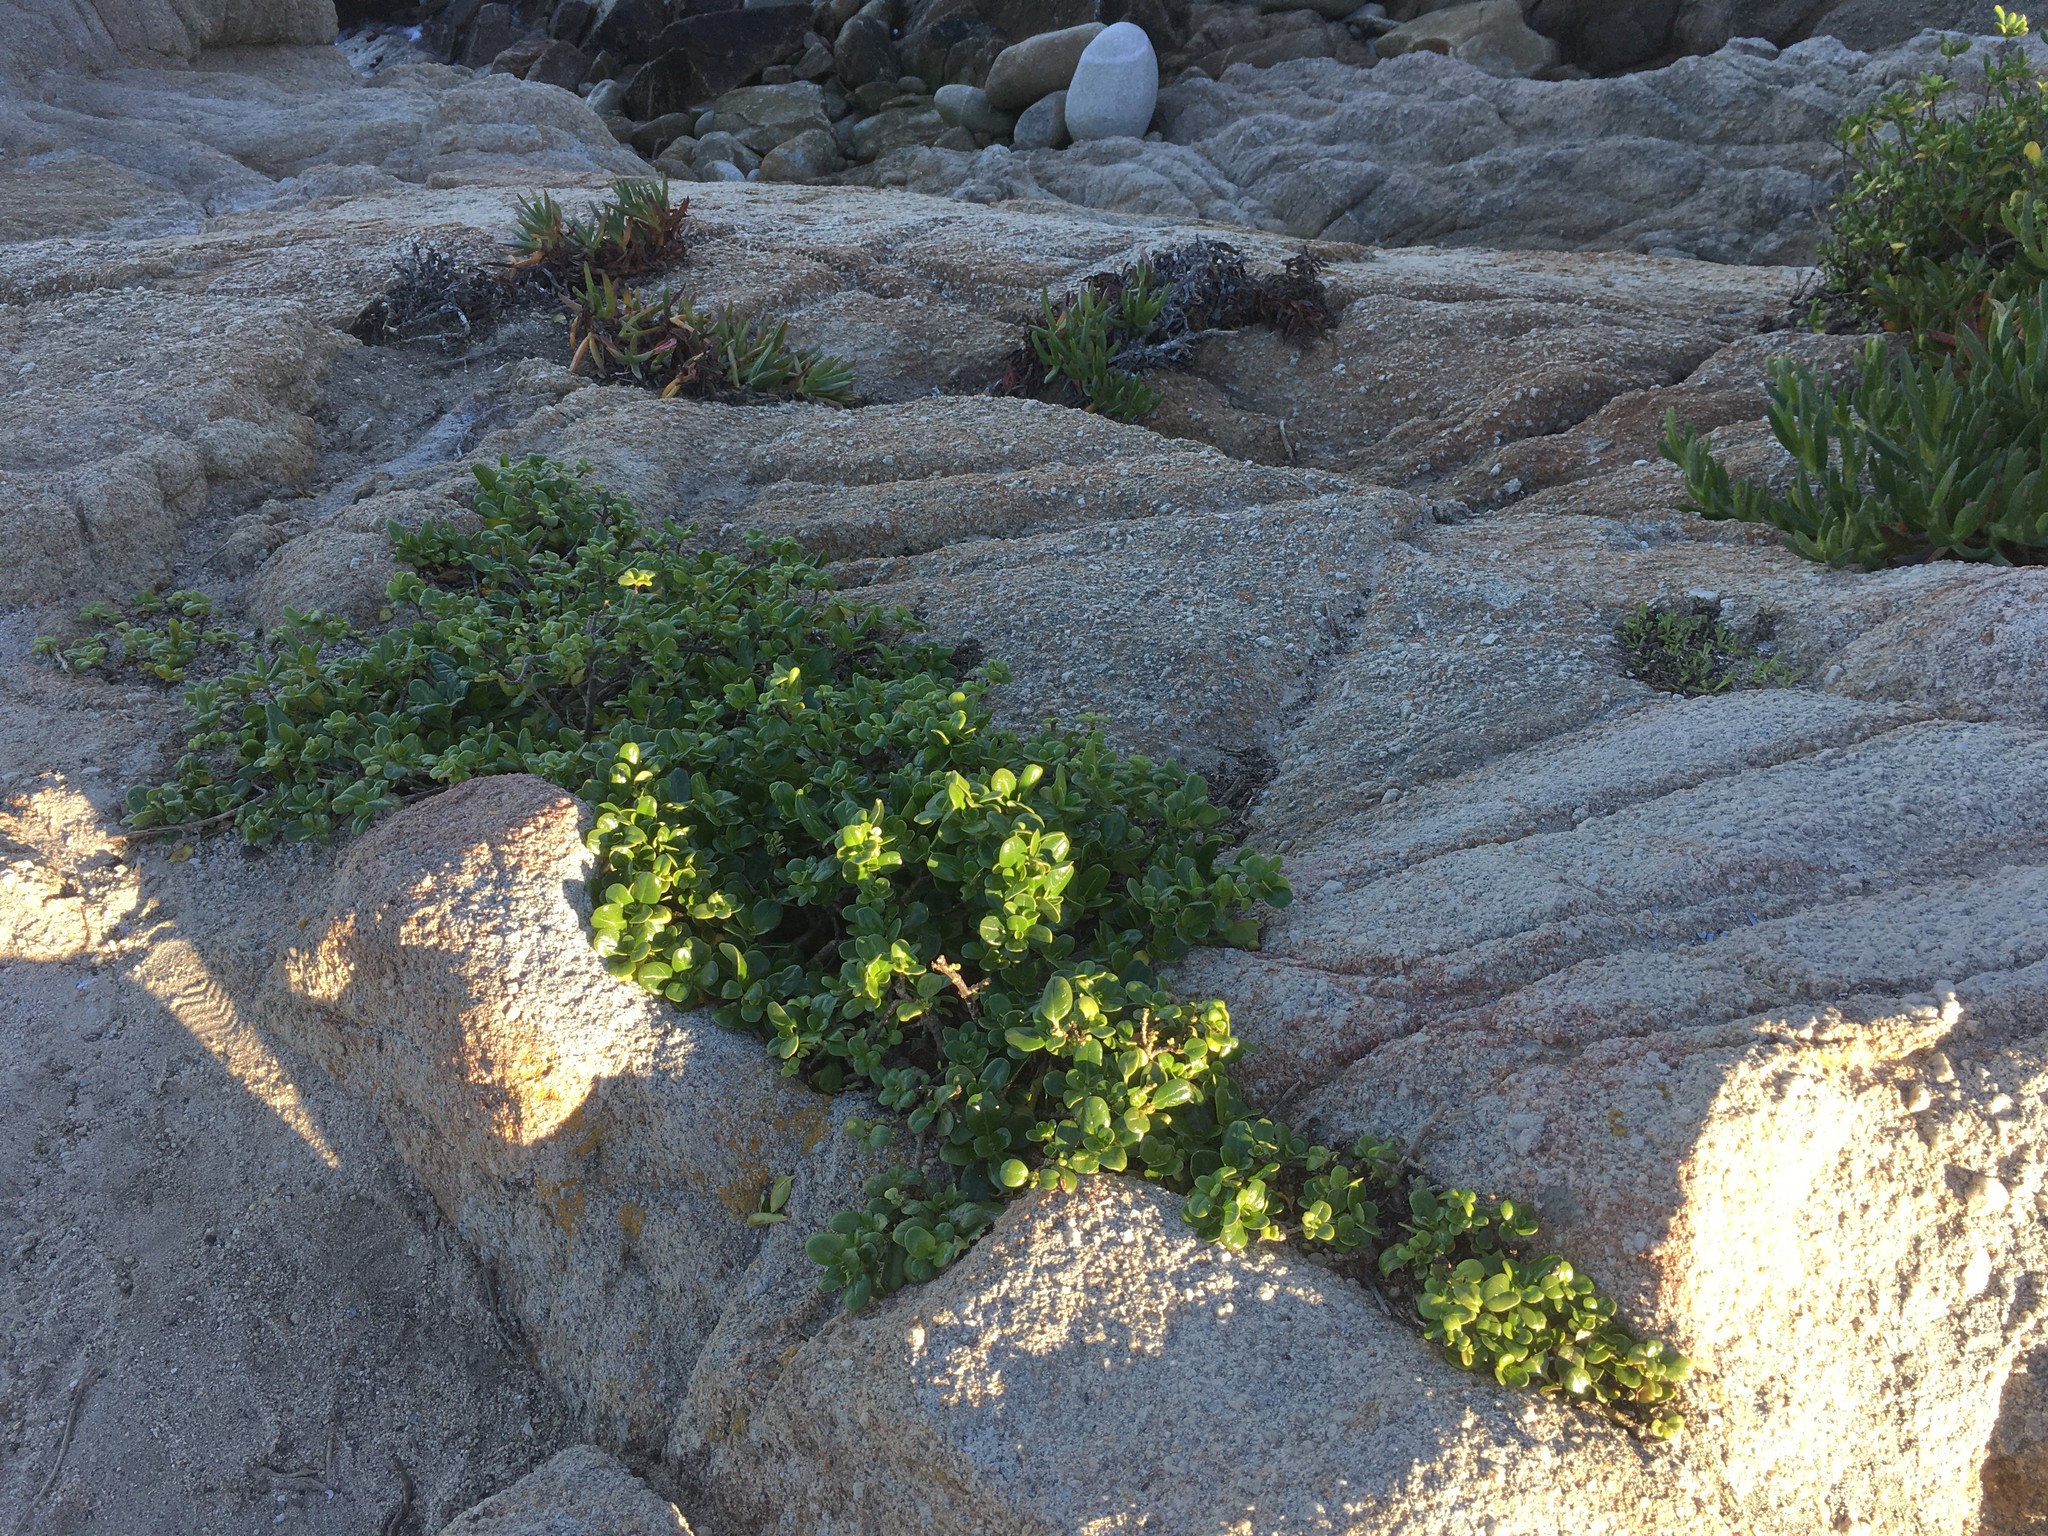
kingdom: Plantae
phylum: Tracheophyta
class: Magnoliopsida
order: Gentianales
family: Rubiaceae
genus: Coprosma
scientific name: Coprosma repens
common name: Tree bedstraw
